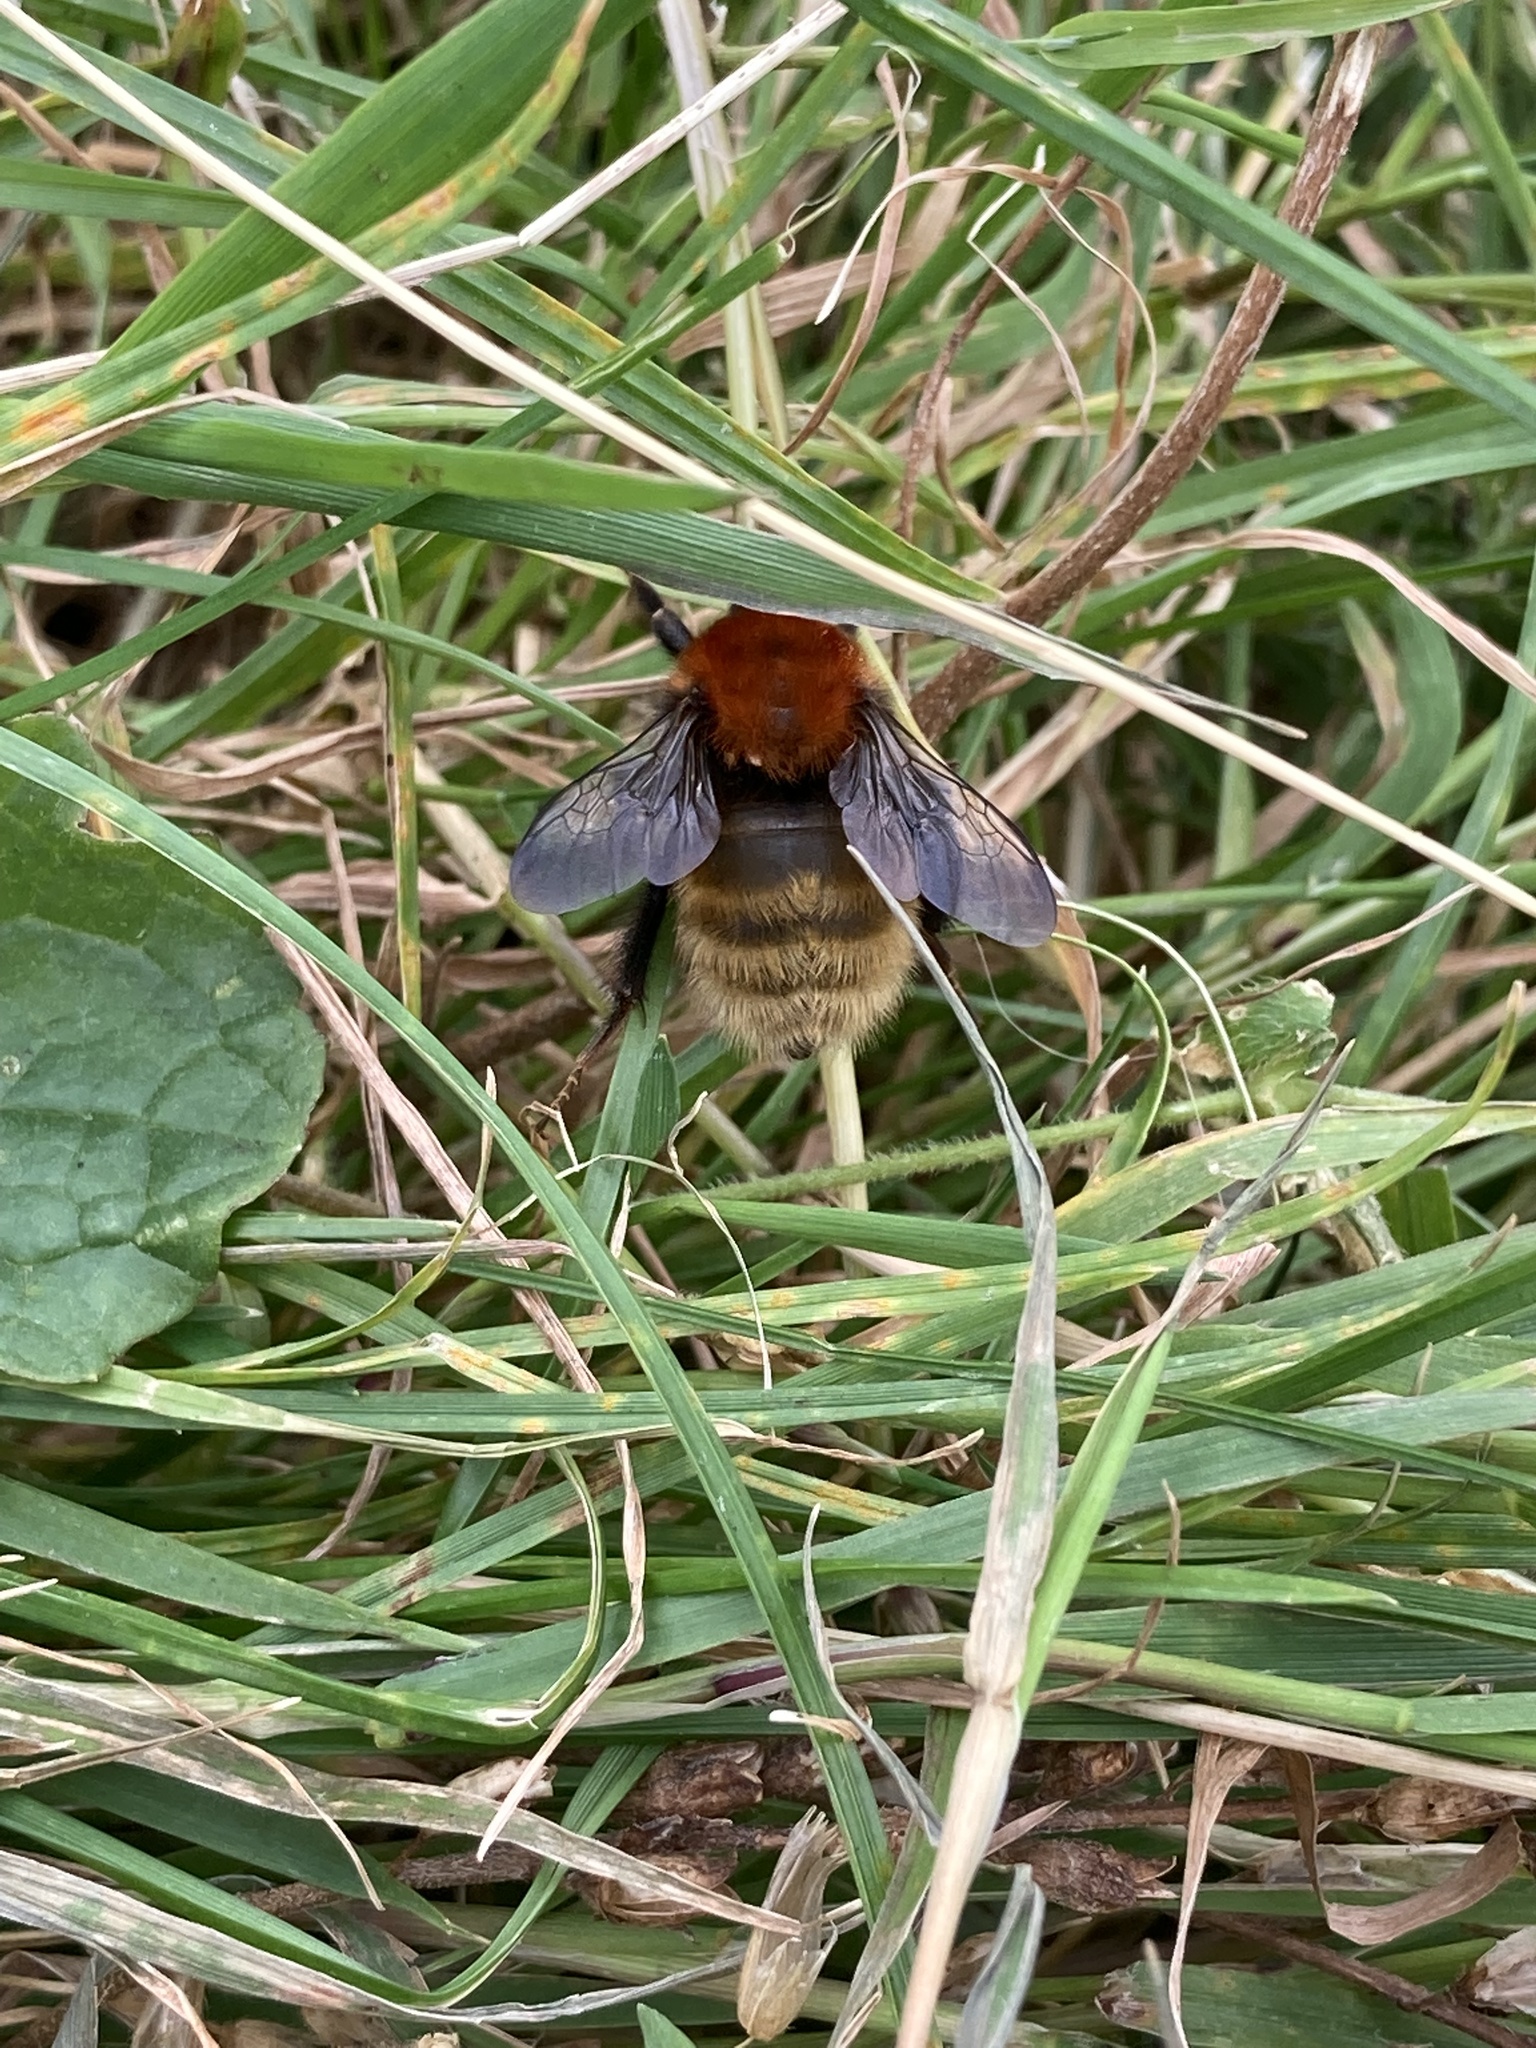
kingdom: Animalia
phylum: Arthropoda
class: Insecta
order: Hymenoptera
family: Apidae
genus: Bombus
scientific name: Bombus muscorum
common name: Moss carder-bee
